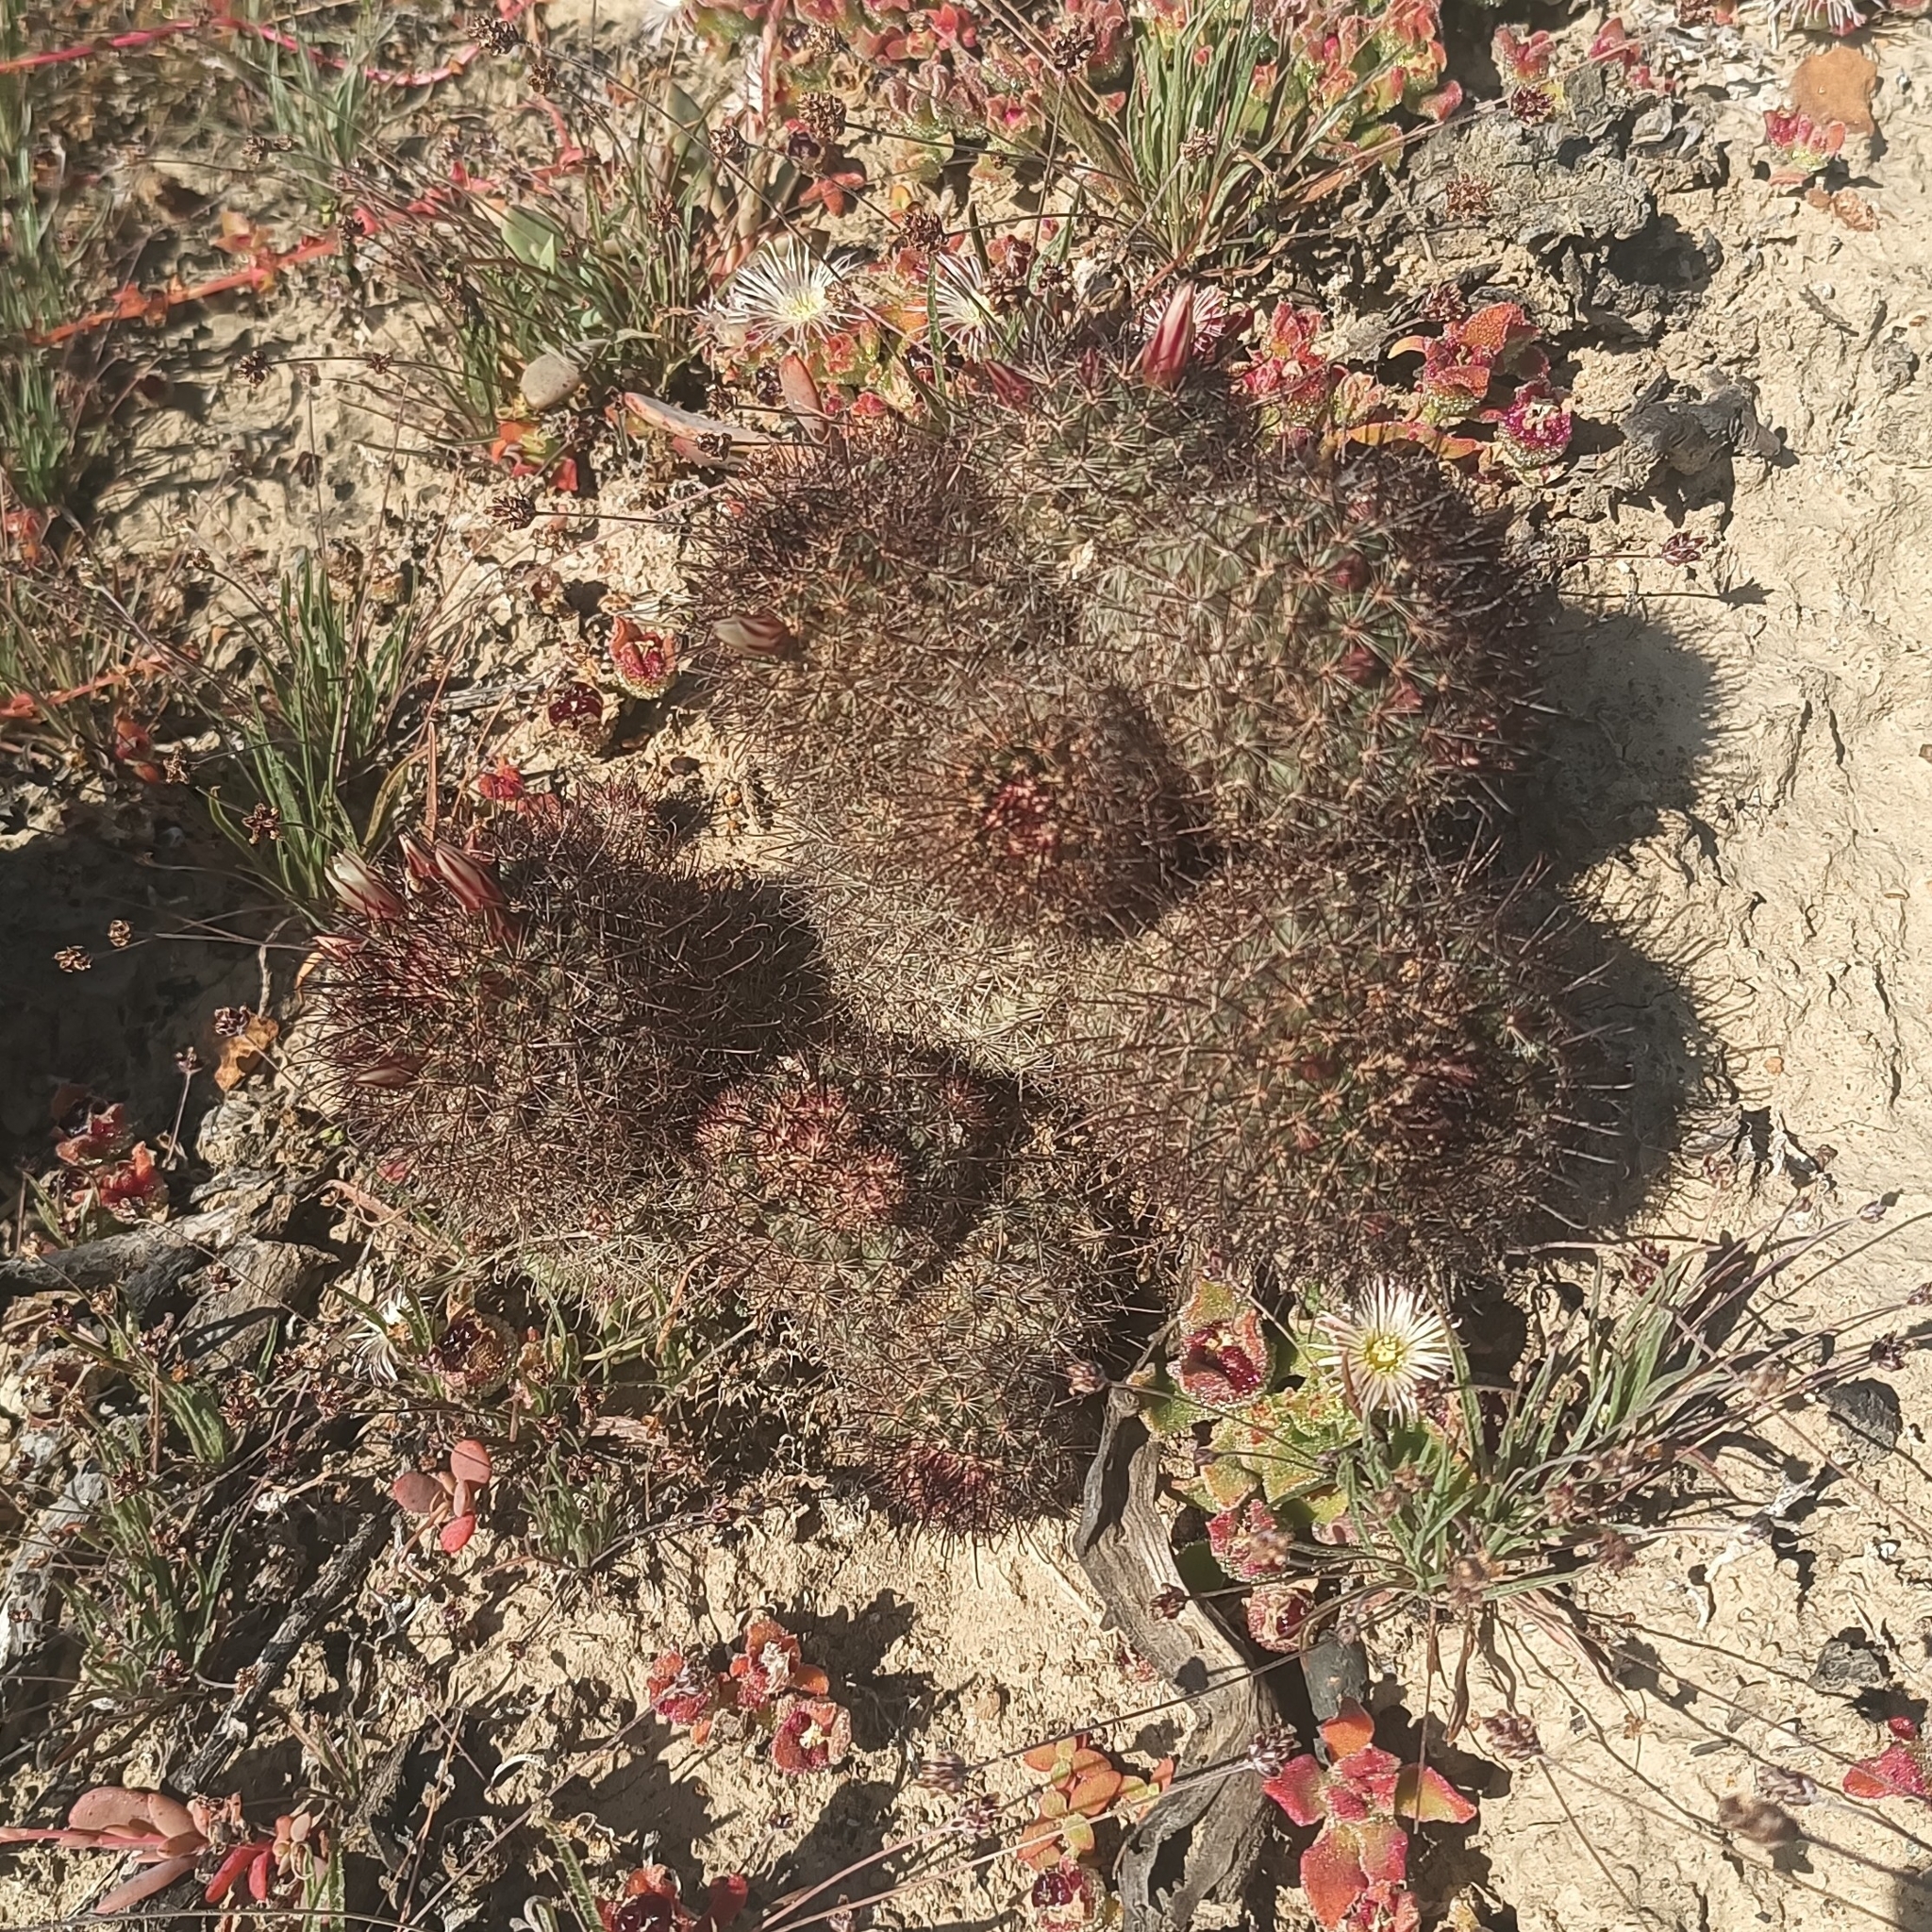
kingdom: Plantae
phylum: Tracheophyta
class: Magnoliopsida
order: Caryophyllales
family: Cactaceae
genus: Cochemiea
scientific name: Cochemiea dioica
